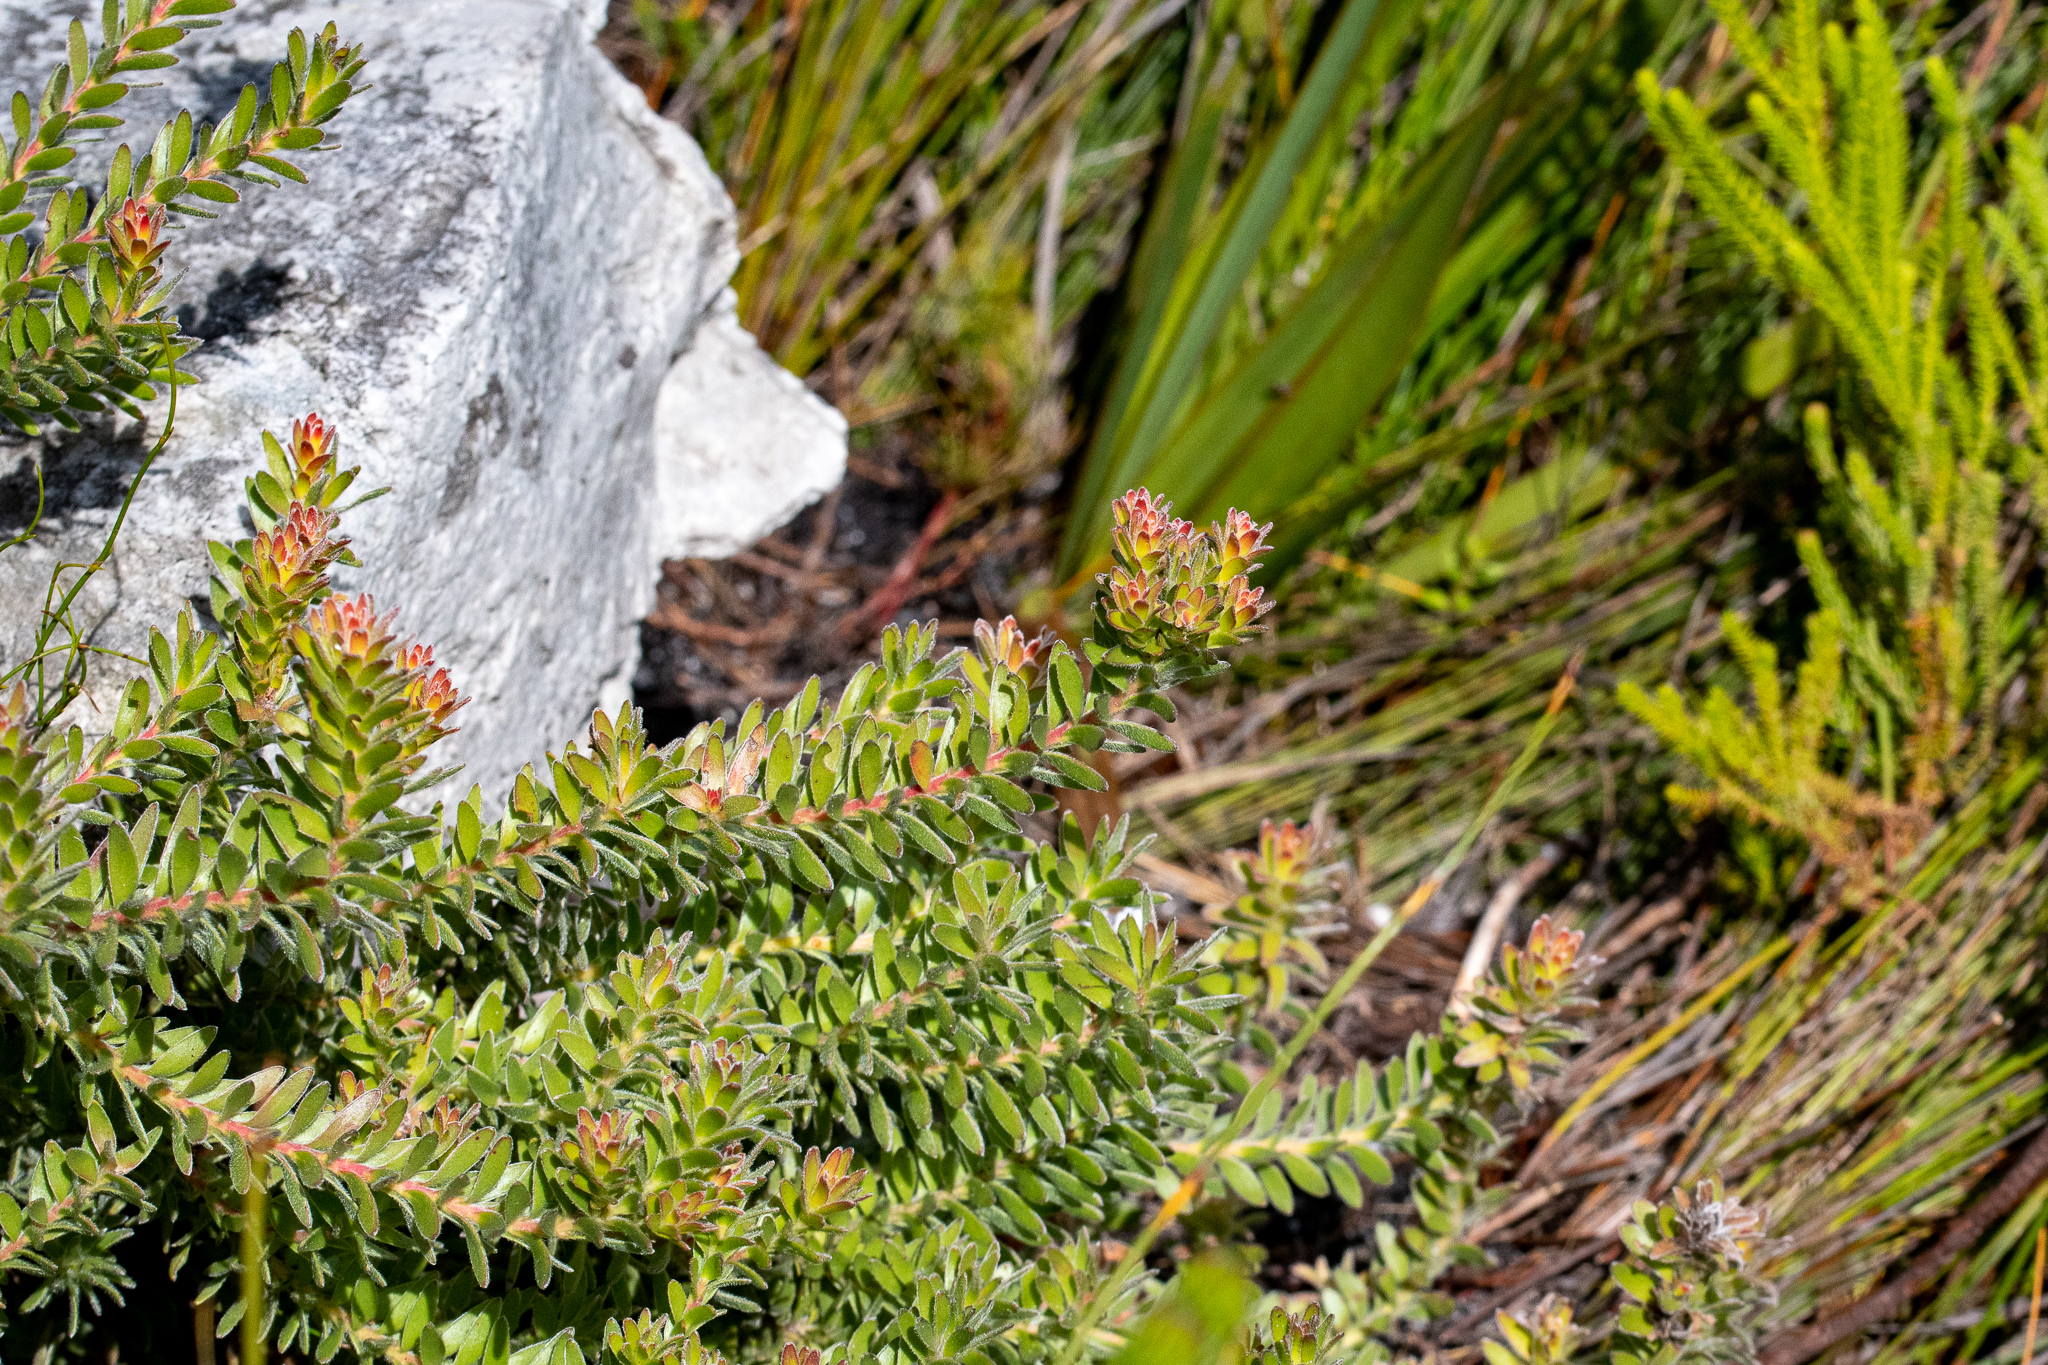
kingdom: Plantae
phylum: Tracheophyta
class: Magnoliopsida
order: Proteales
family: Proteaceae
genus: Diastella
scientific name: Diastella fraterna
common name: Palmiet silkypuff
